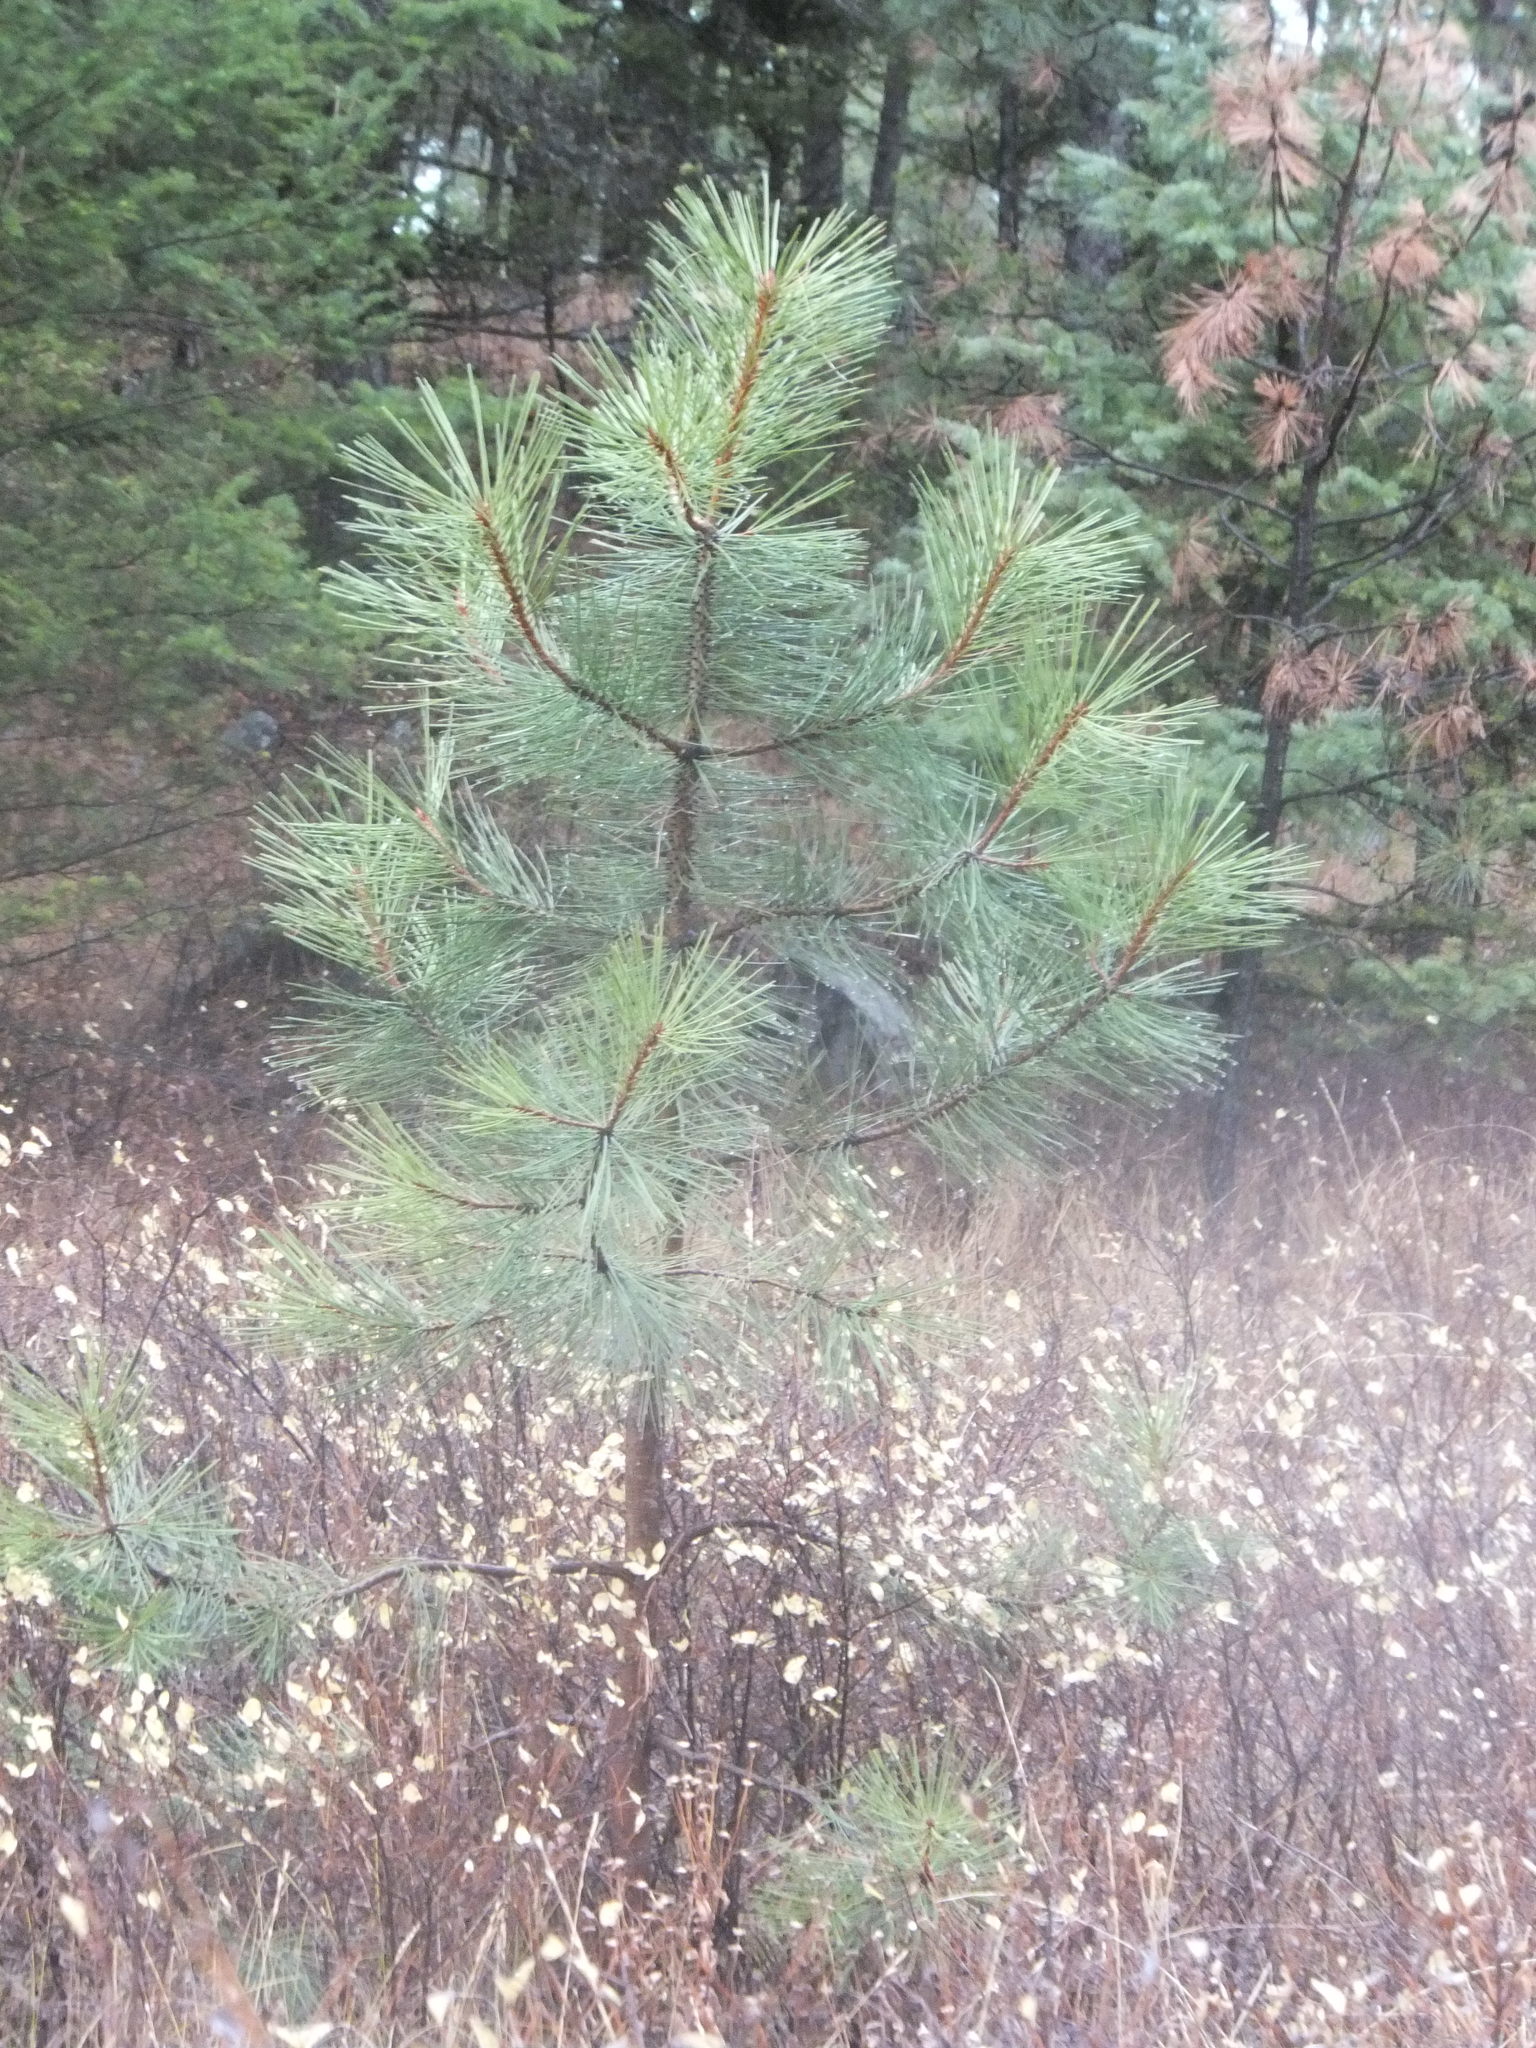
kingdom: Plantae
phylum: Tracheophyta
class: Pinopsida
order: Pinales
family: Pinaceae
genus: Pinus
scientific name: Pinus ponderosa
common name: Western yellow-pine
